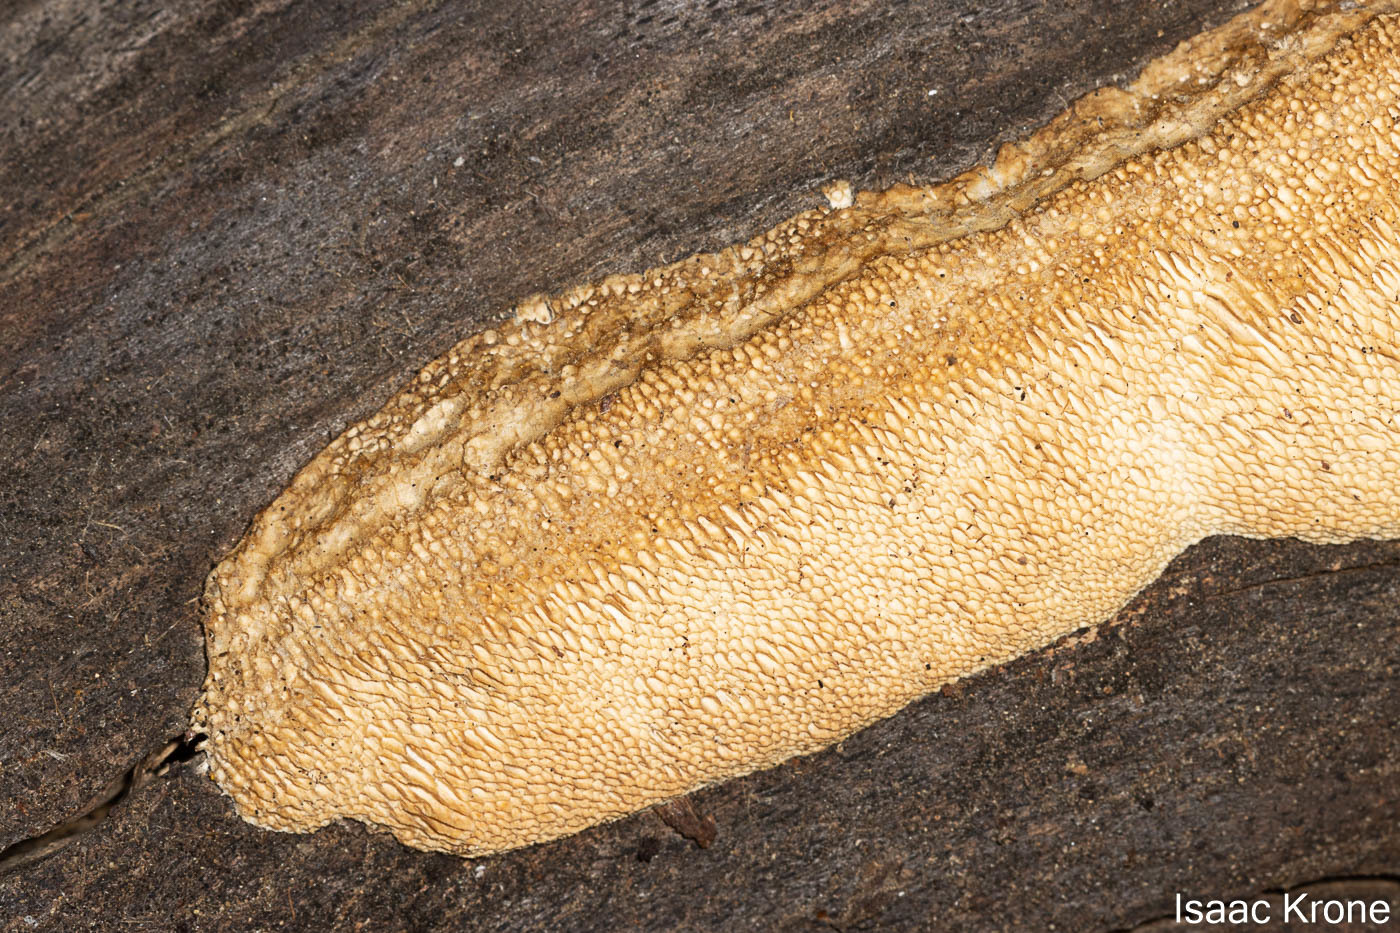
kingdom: Fungi
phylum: Basidiomycota
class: Agaricomycetes
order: Polyporales
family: Fomitopsidaceae
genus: Fomitopsis
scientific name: Fomitopsis
